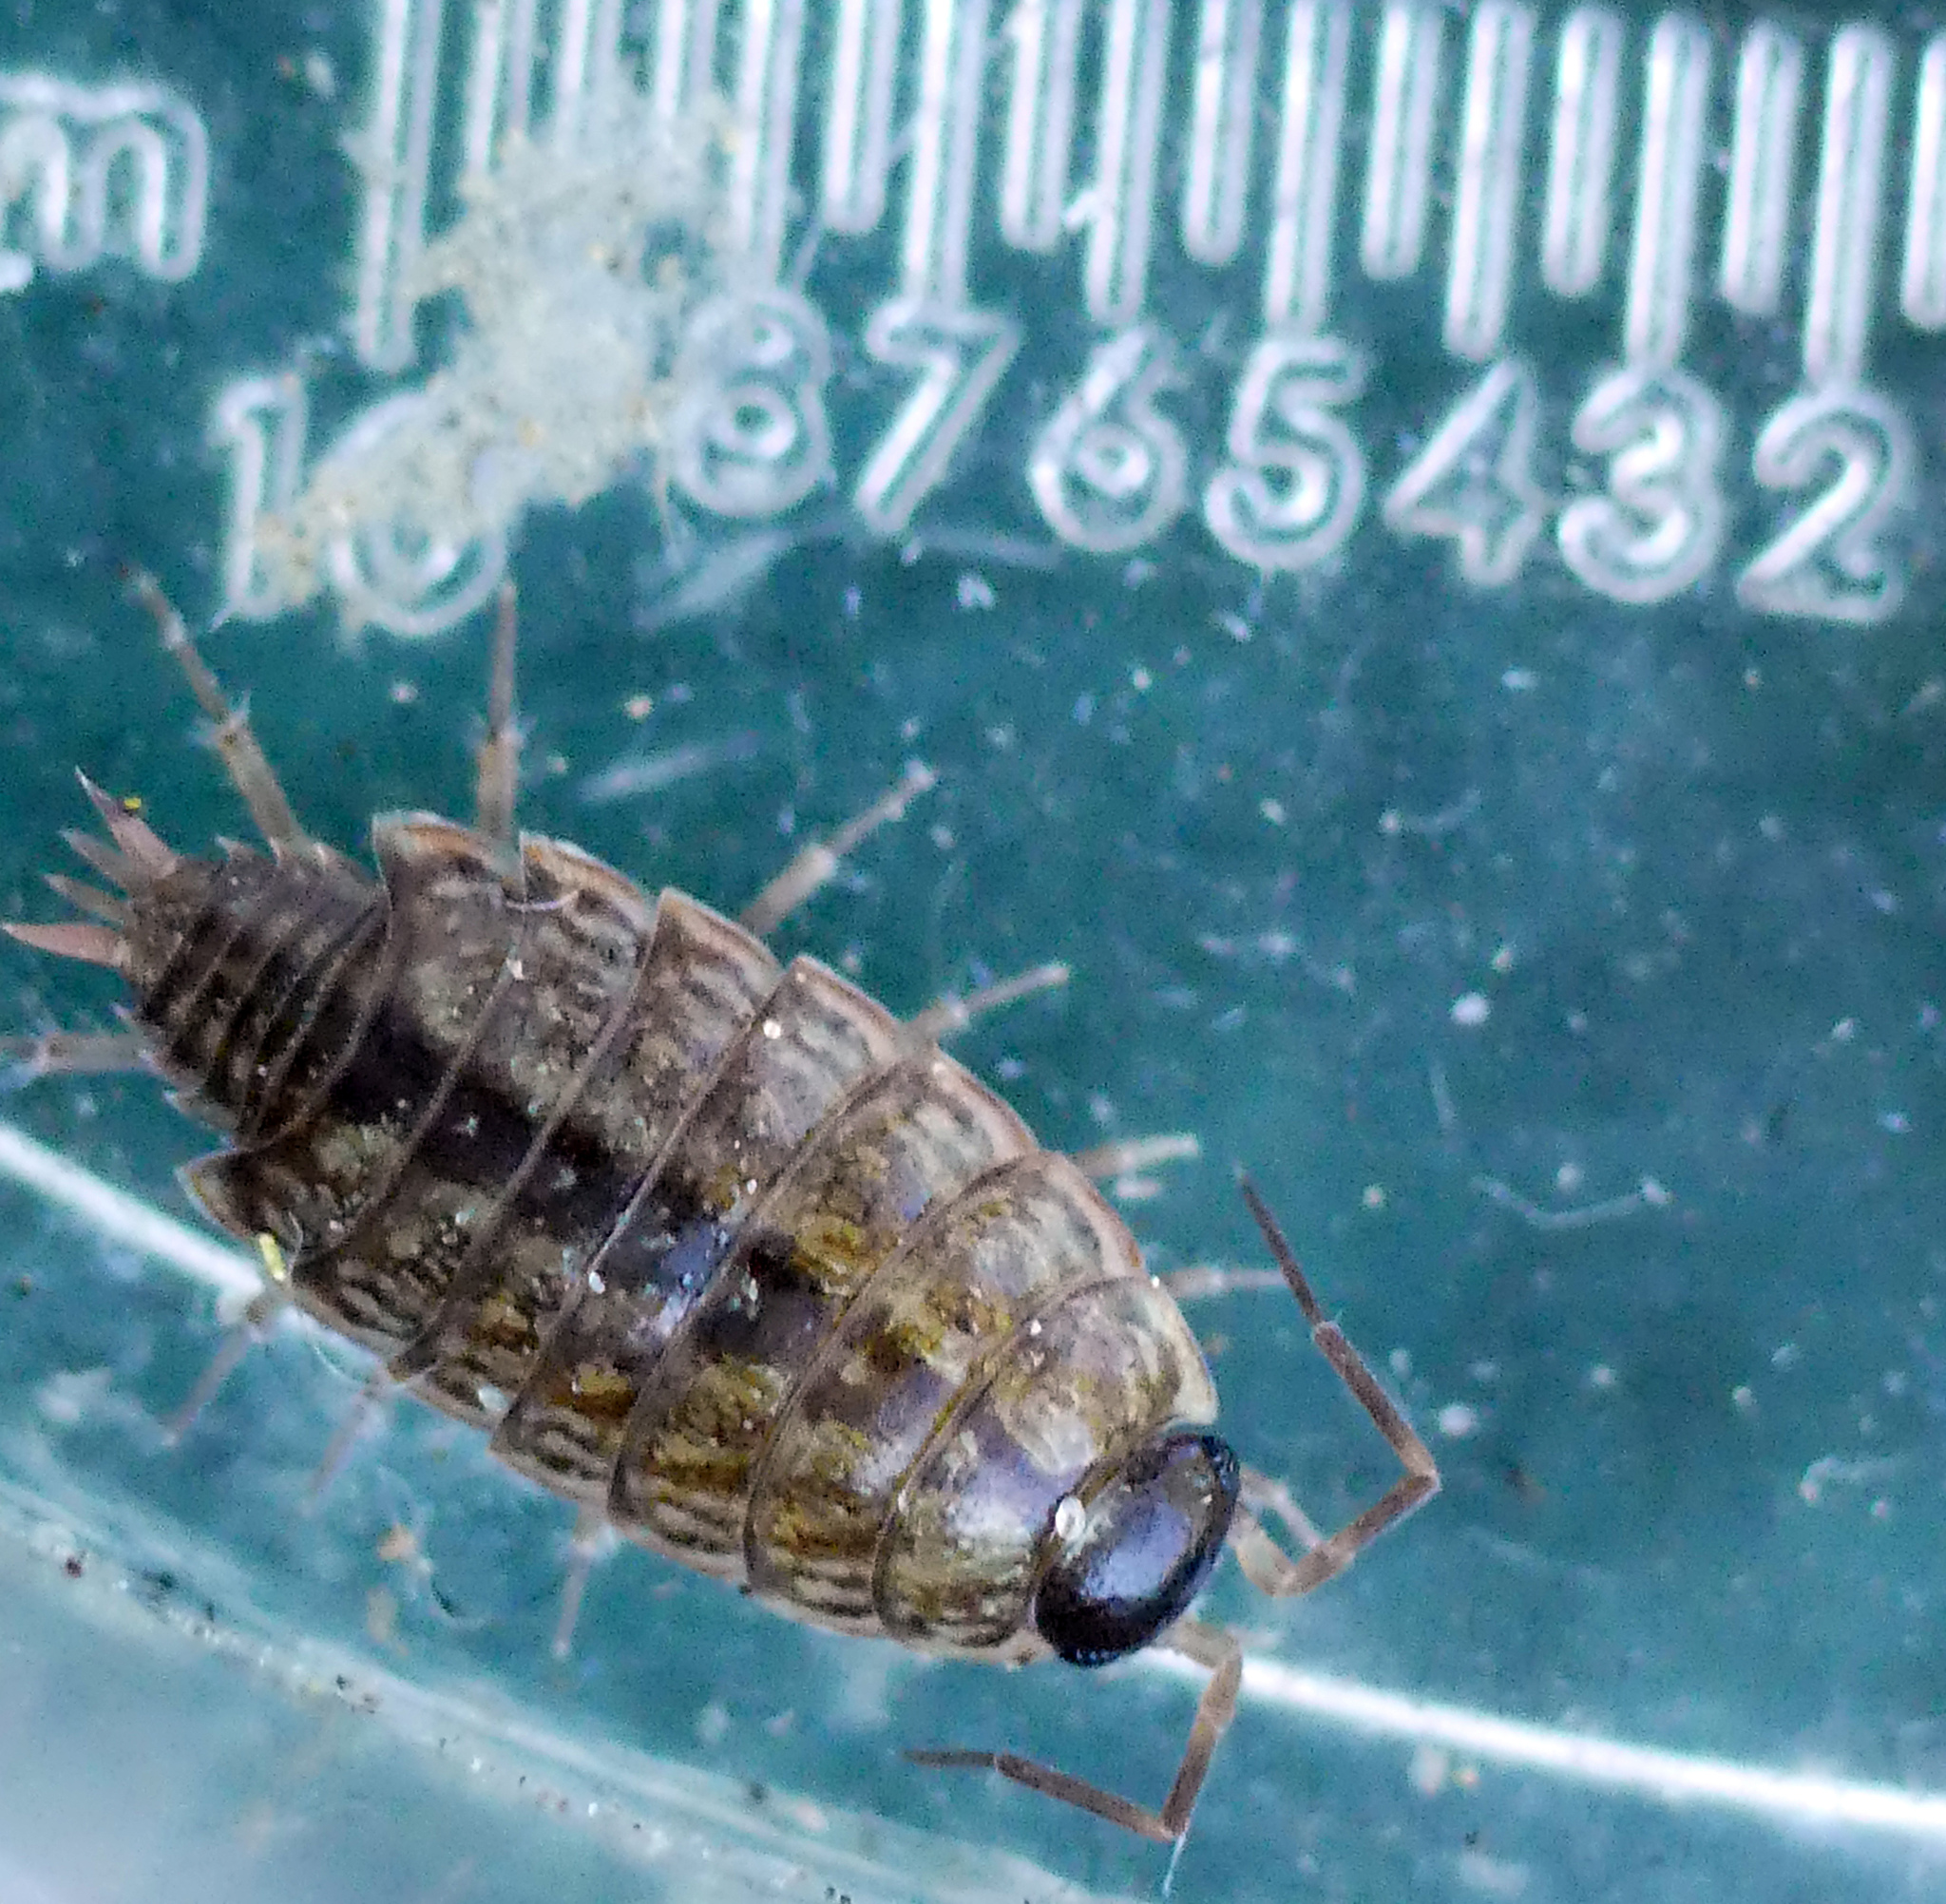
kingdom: Animalia
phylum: Arthropoda
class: Malacostraca
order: Isopoda
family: Philosciidae
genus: Philoscia
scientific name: Philoscia muscorum
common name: Common striped woodlouse
